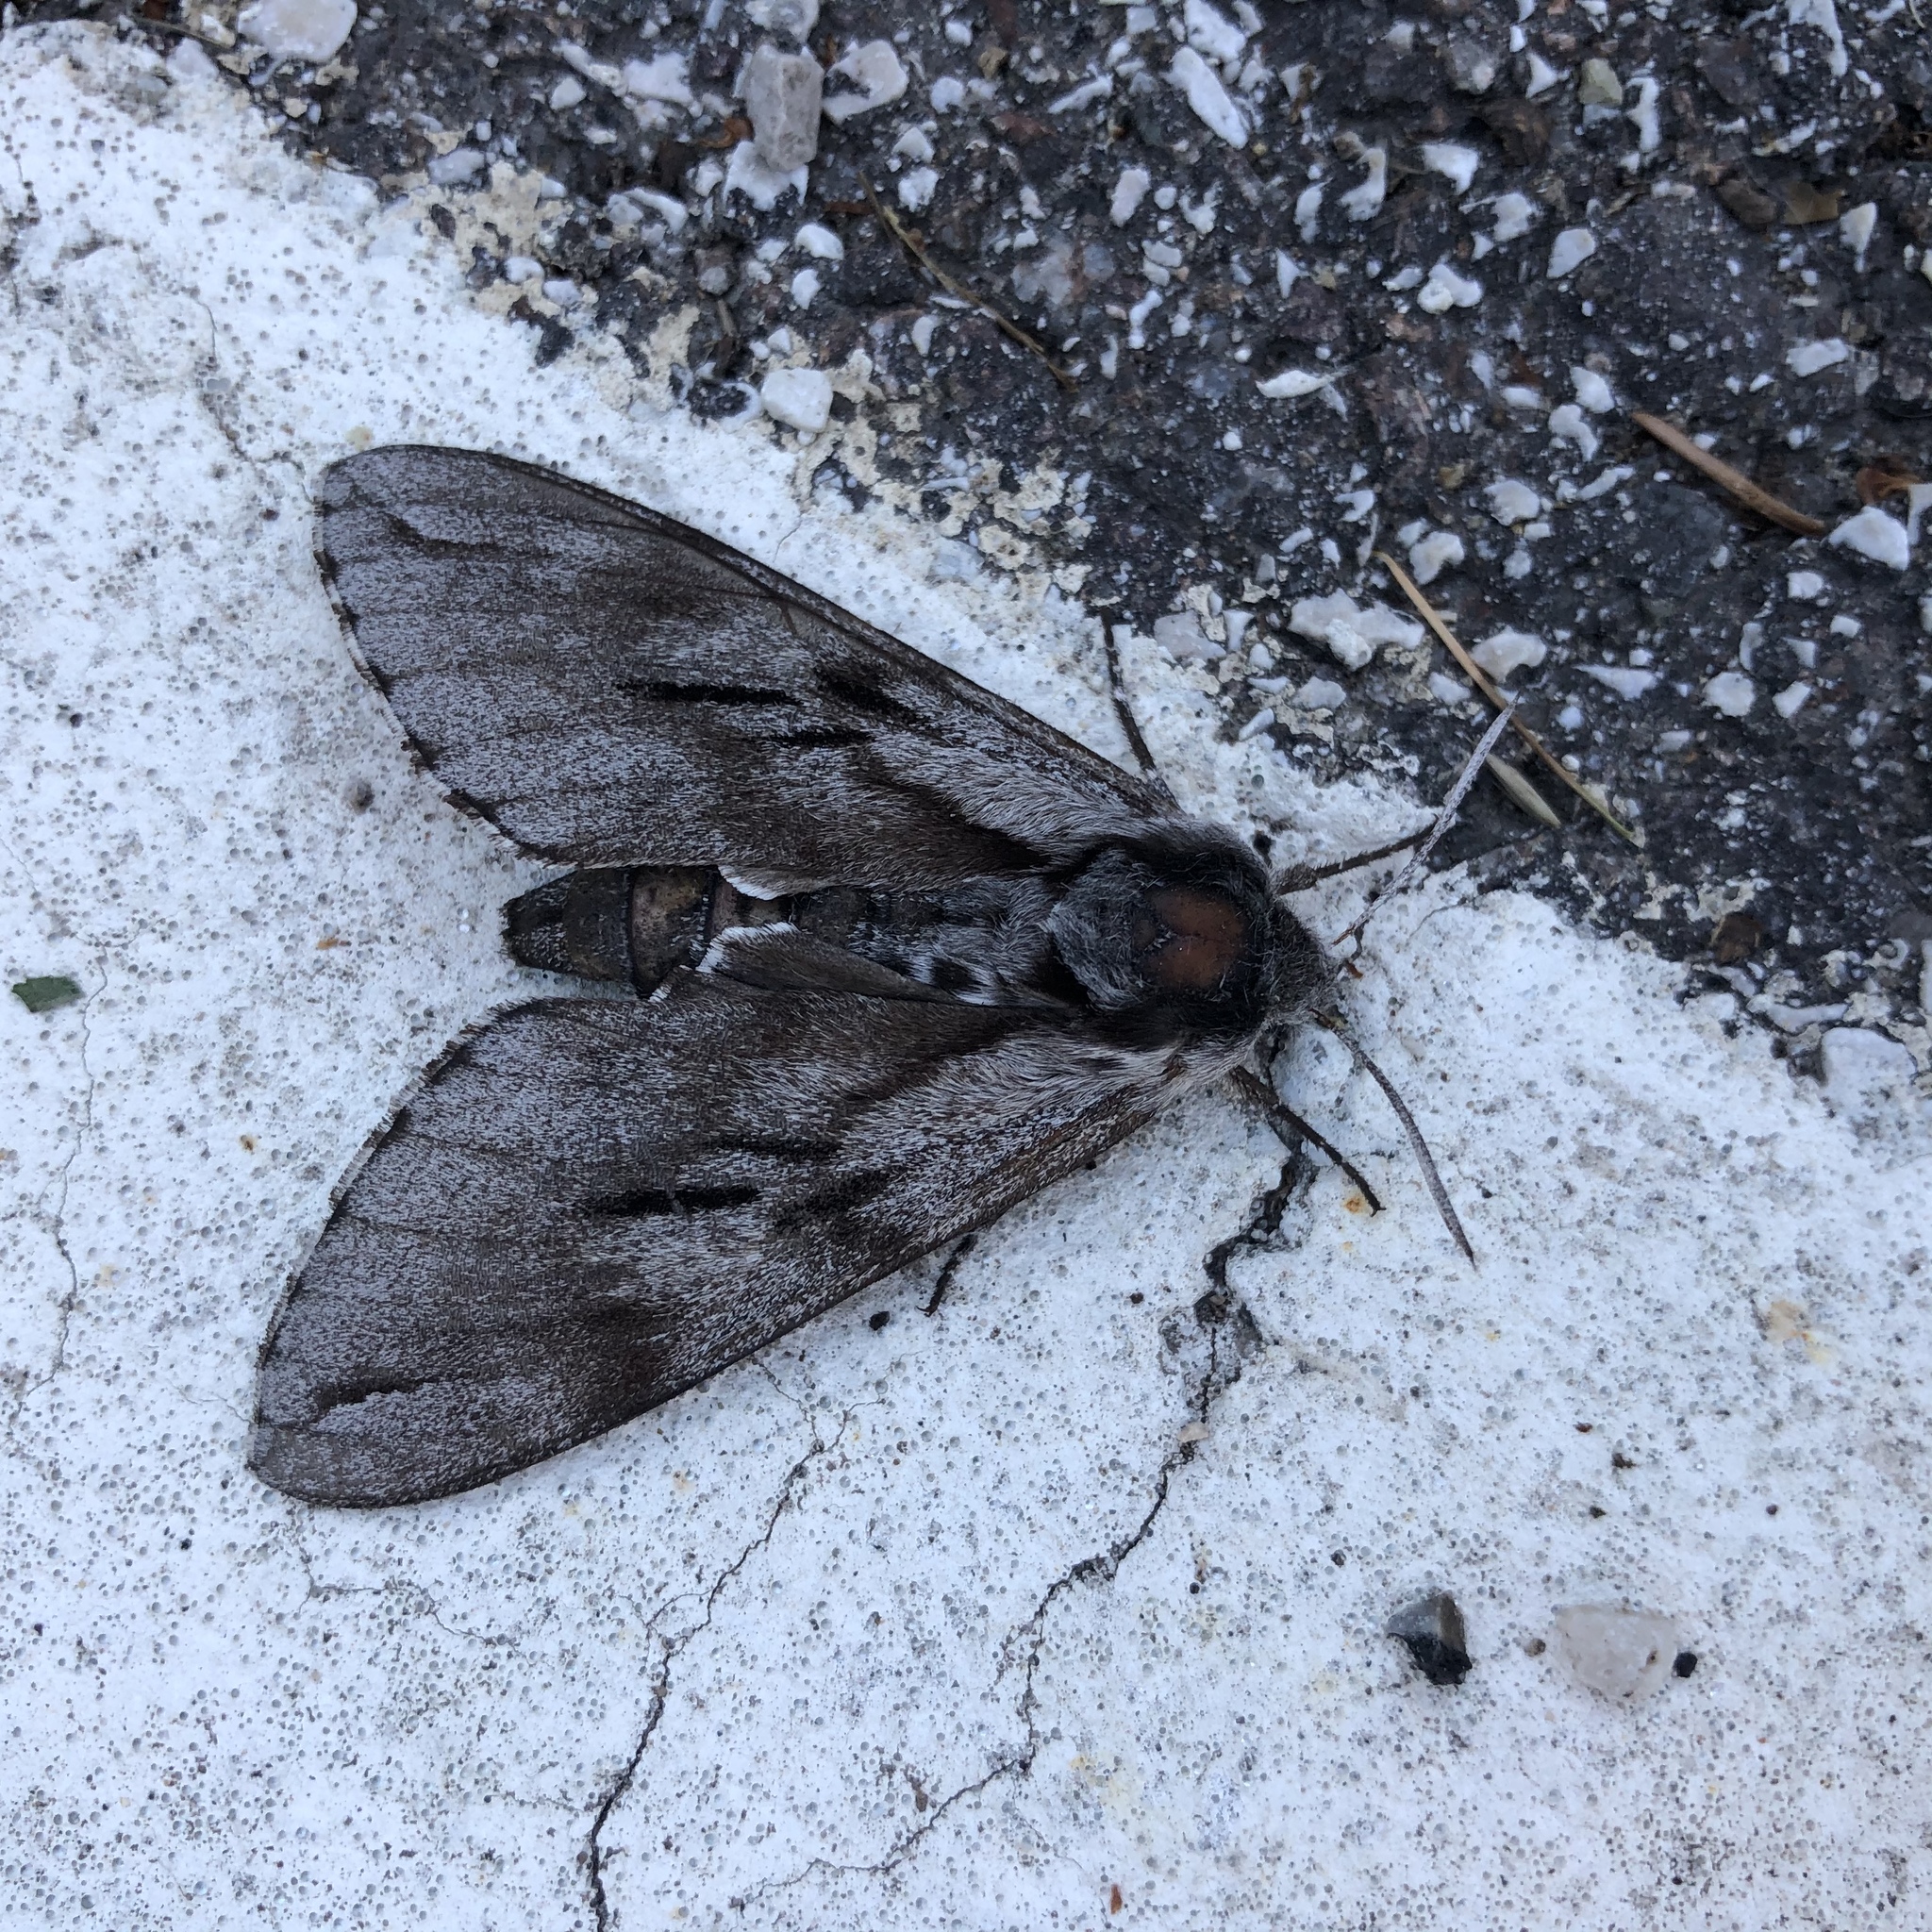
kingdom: Animalia
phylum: Arthropoda
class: Insecta
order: Lepidoptera
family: Sphingidae
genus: Sphinx
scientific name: Sphinx pinastri
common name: Pine hawk-moth
